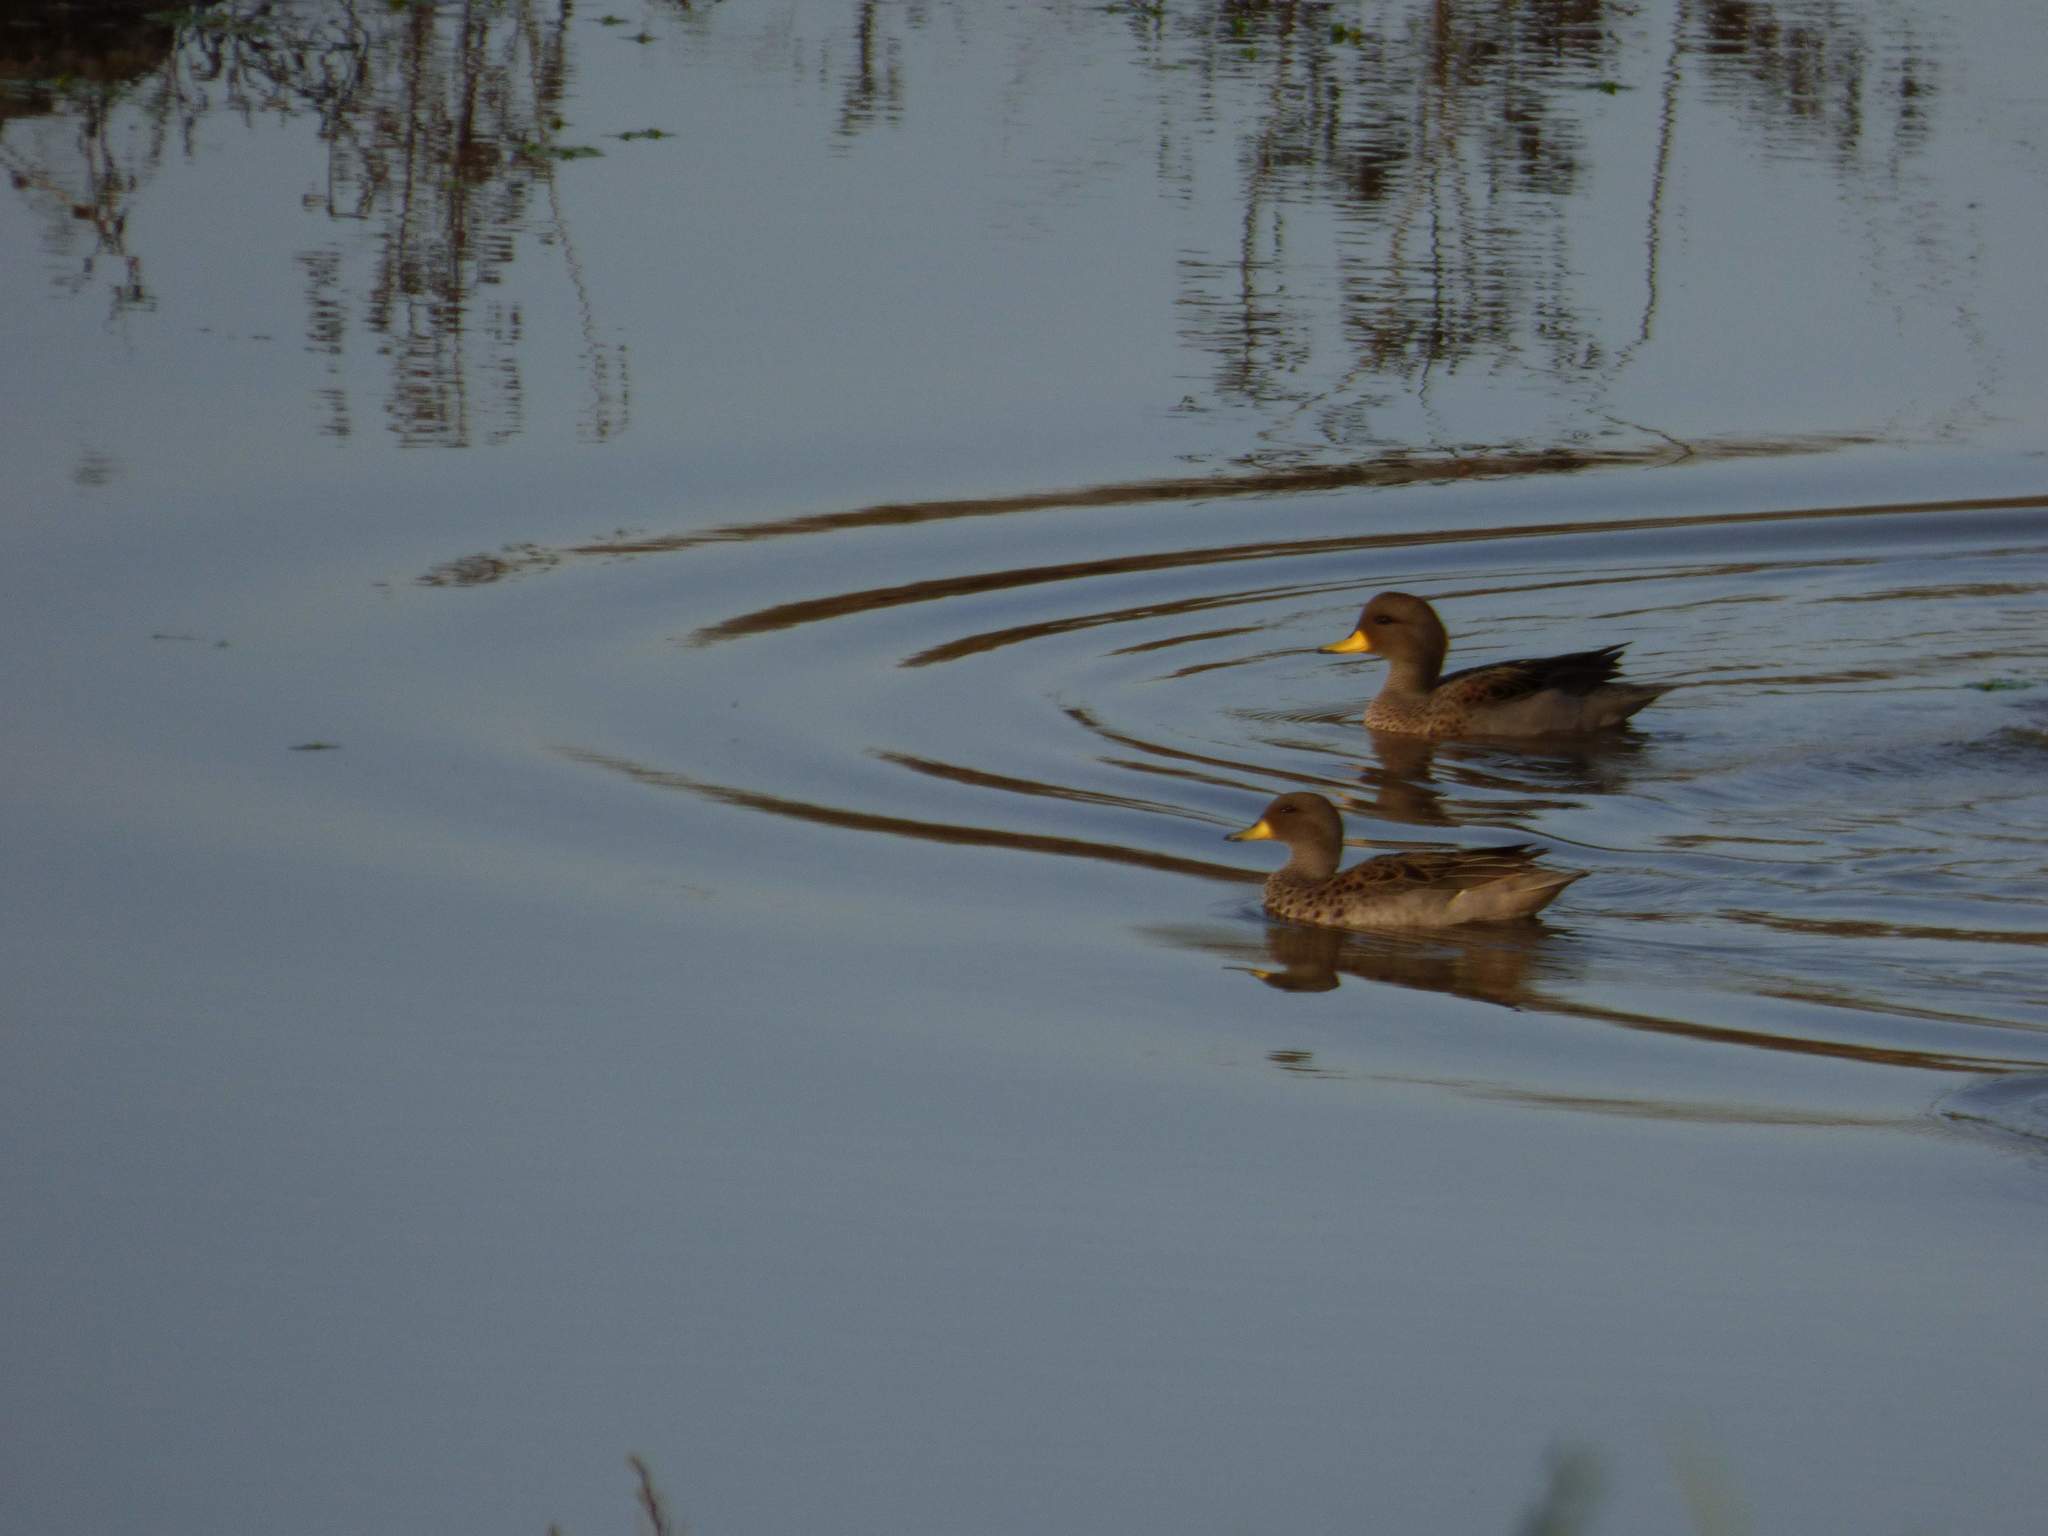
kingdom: Animalia
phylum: Chordata
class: Aves
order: Anseriformes
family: Anatidae
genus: Anas
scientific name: Anas flavirostris
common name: Yellow-billed teal
